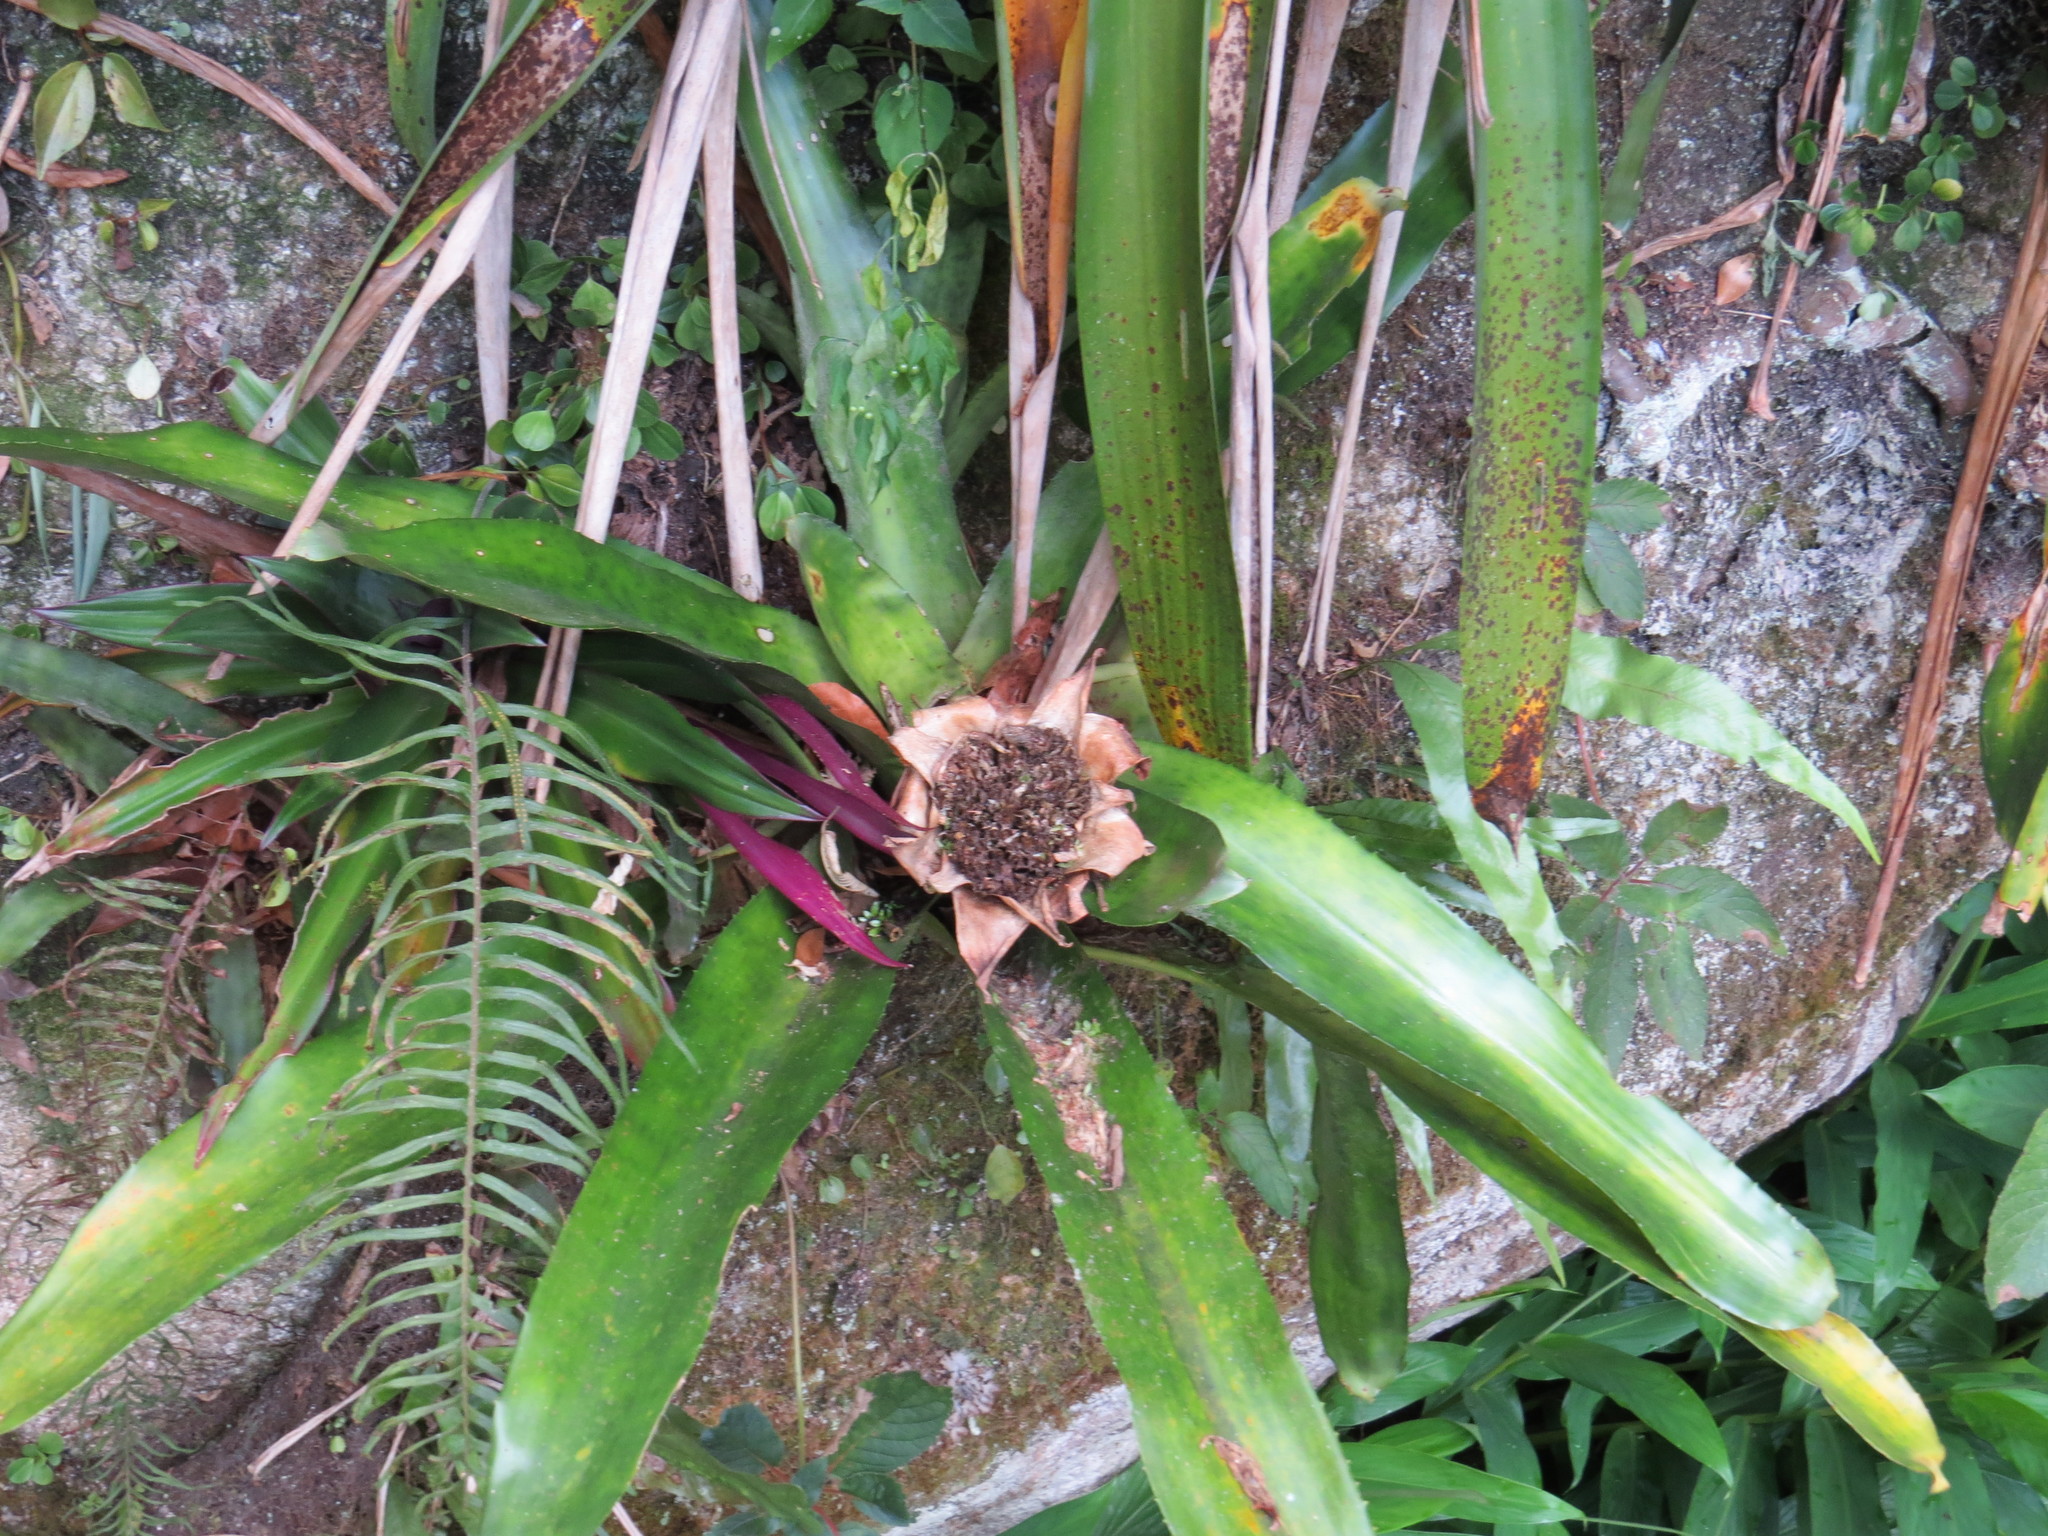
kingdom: Plantae
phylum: Tracheophyta
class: Liliopsida
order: Poales
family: Bromeliaceae
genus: Edmundoa
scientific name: Edmundoa lindenii
